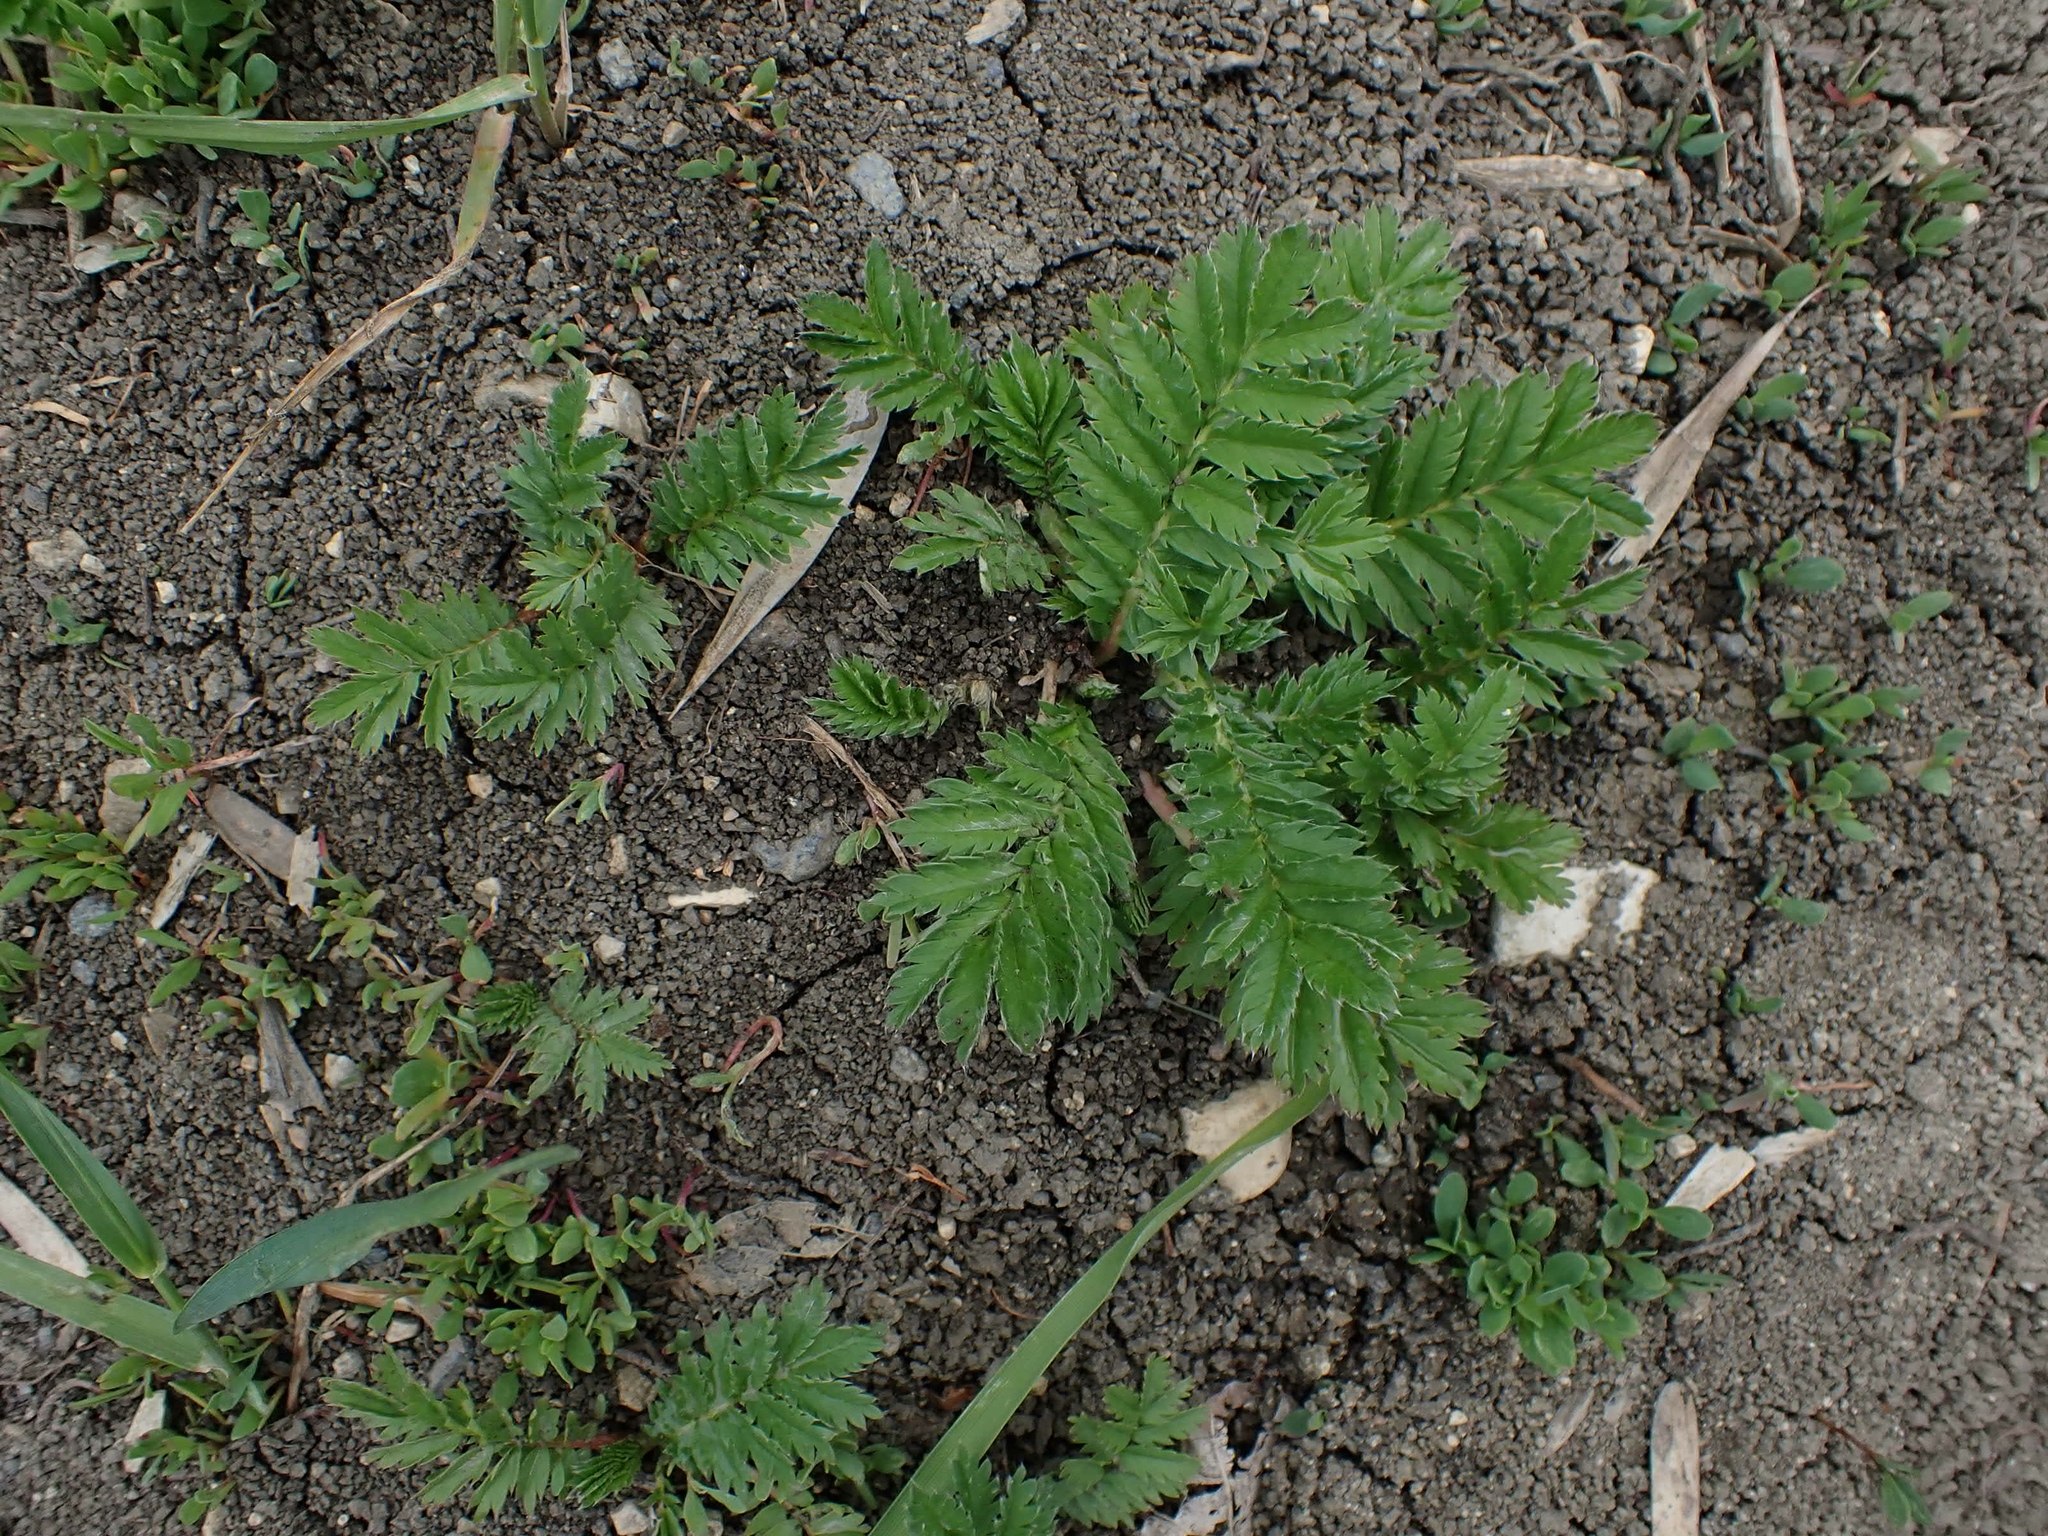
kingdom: Plantae
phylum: Tracheophyta
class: Magnoliopsida
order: Rosales
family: Rosaceae
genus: Argentina
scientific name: Argentina anserina
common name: Common silverweed
